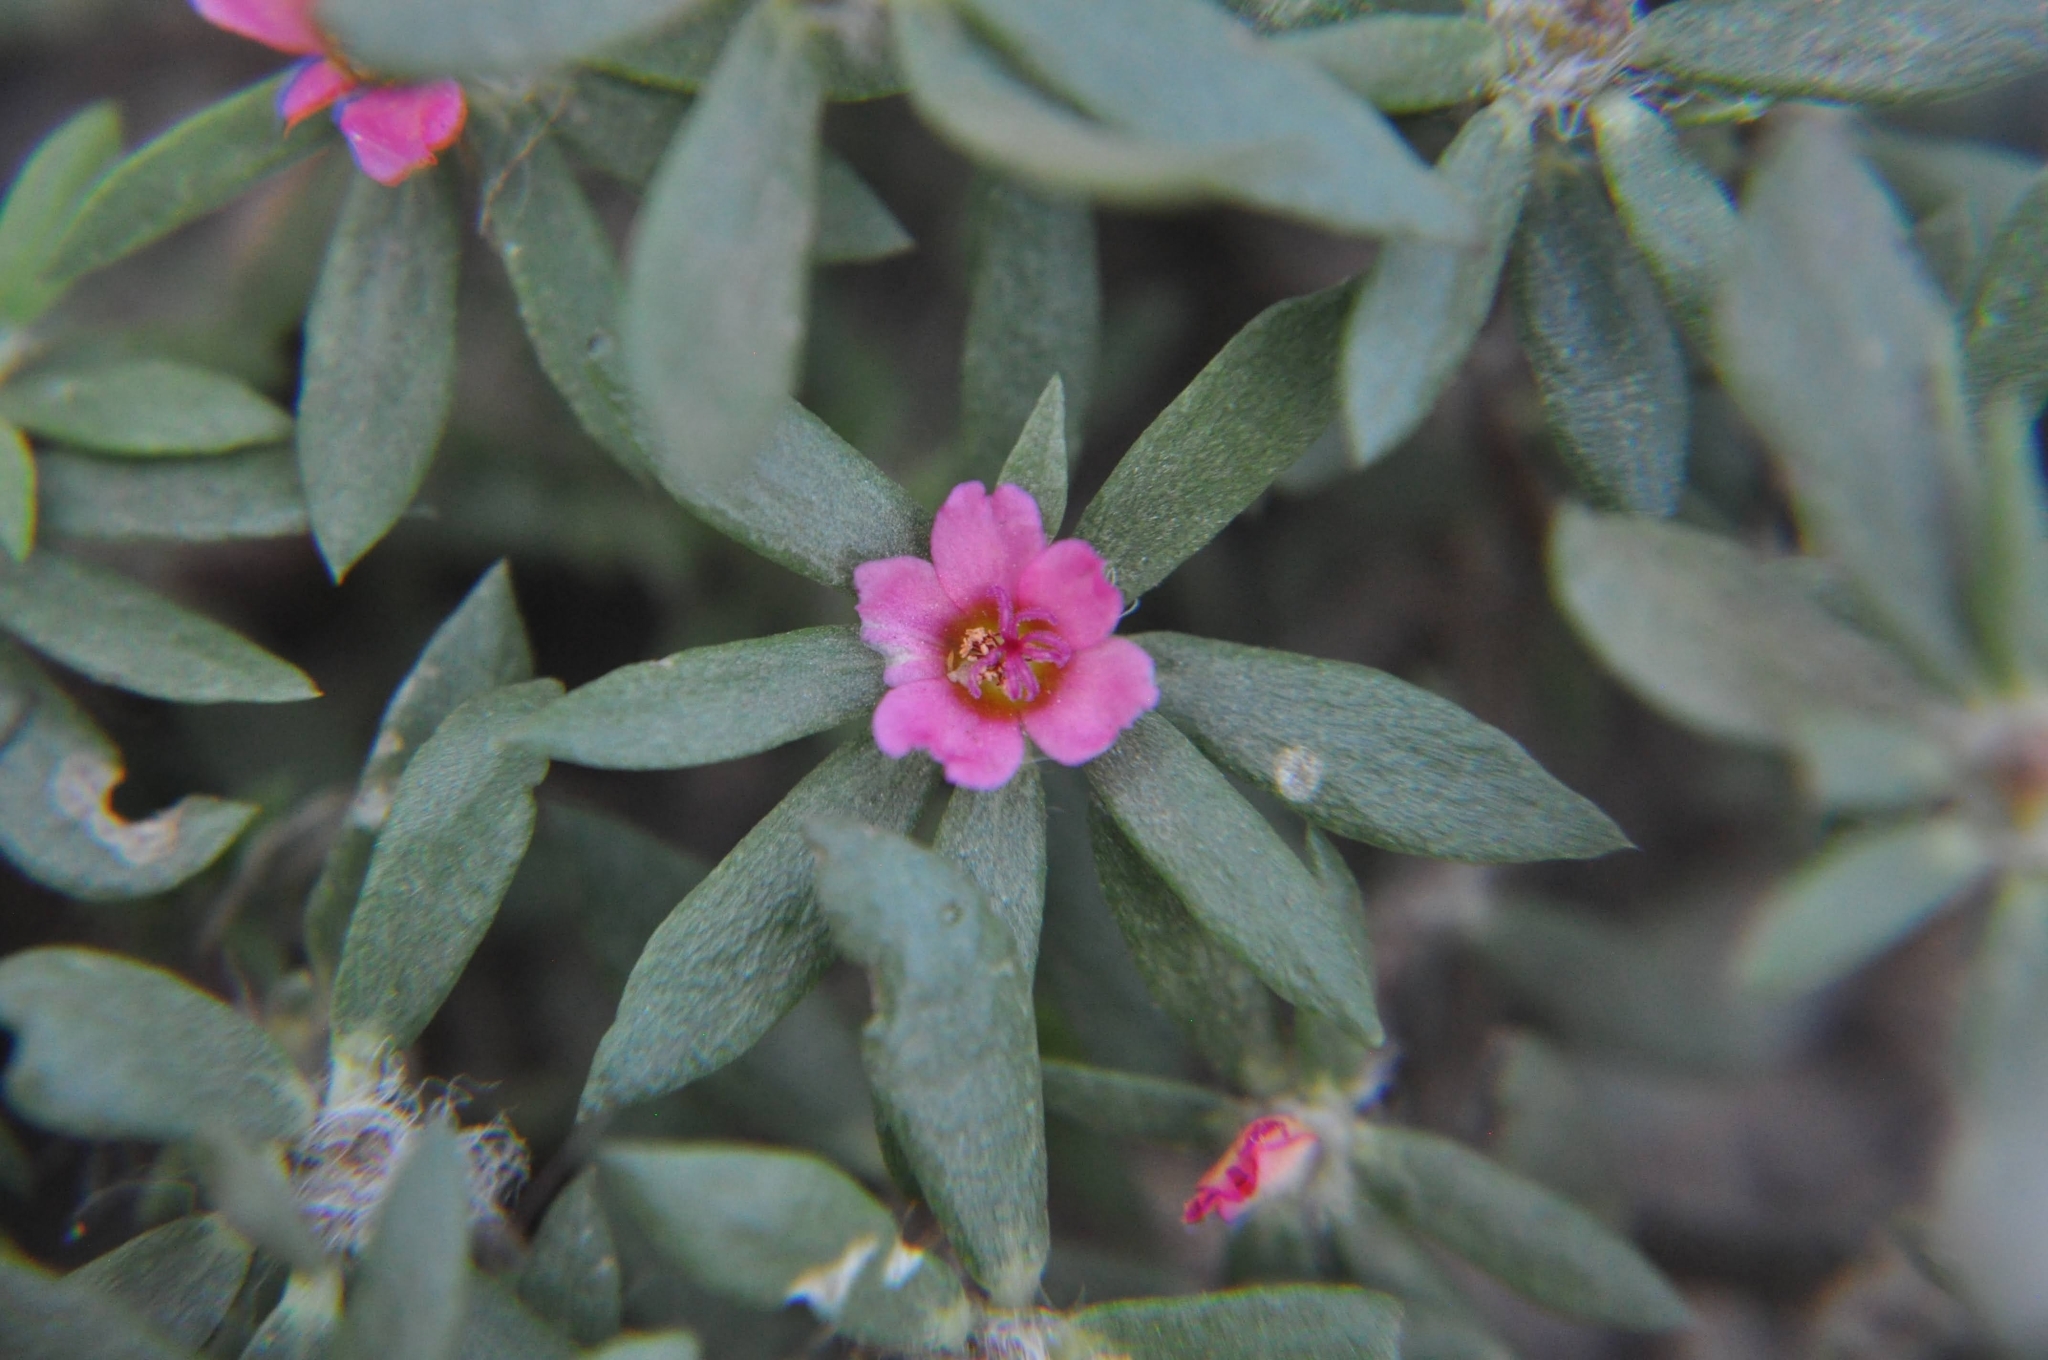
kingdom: Plantae
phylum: Tracheophyta
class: Magnoliopsida
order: Caryophyllales
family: Portulacaceae
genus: Portulaca
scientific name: Portulaca amilis
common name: Paraguayan purslane
